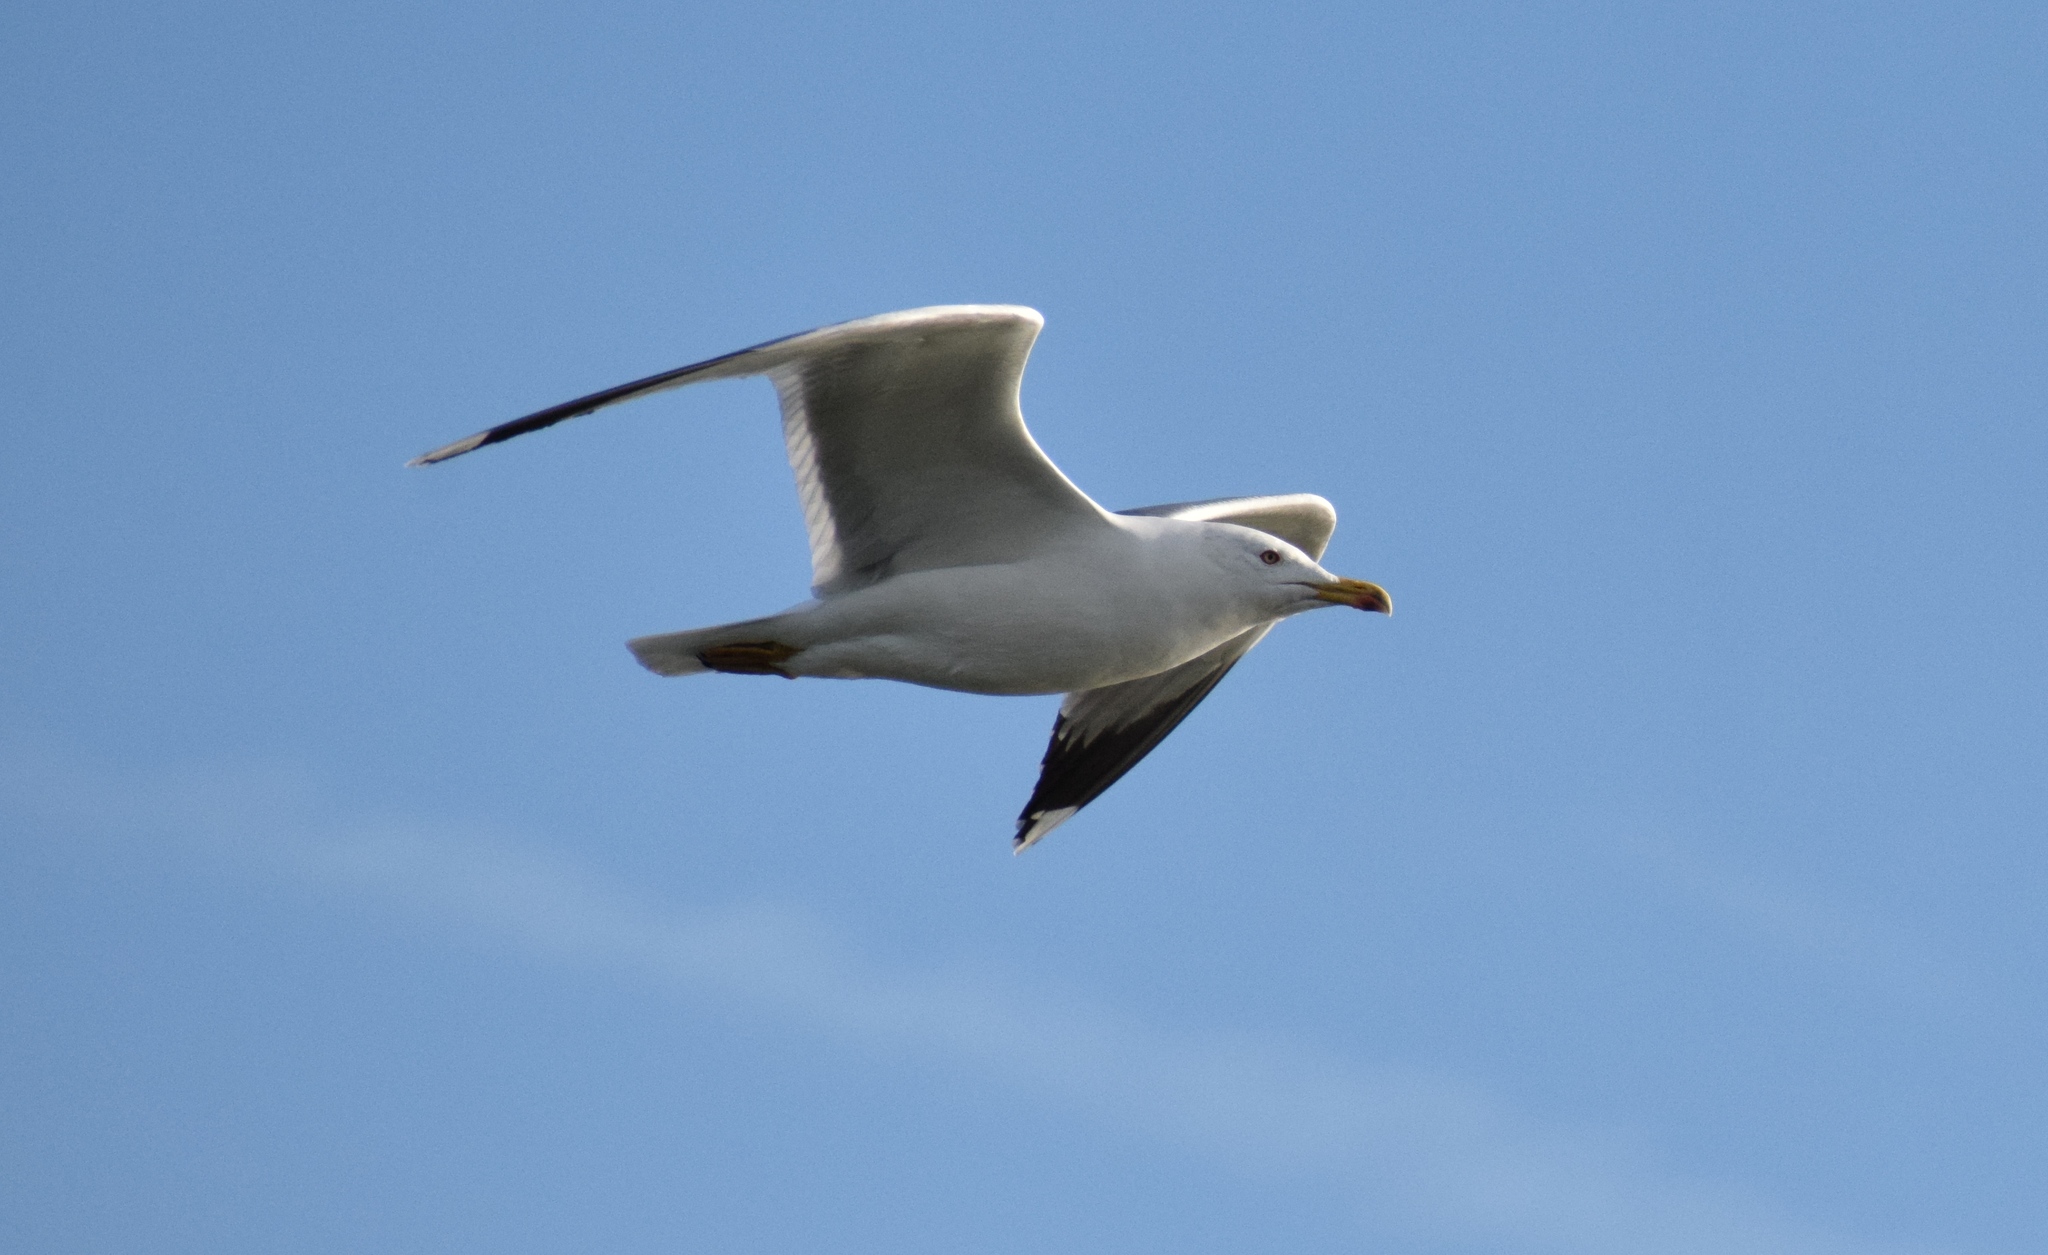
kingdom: Animalia
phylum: Chordata
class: Aves
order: Charadriiformes
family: Laridae
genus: Larus
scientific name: Larus michahellis
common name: Yellow-legged gull
